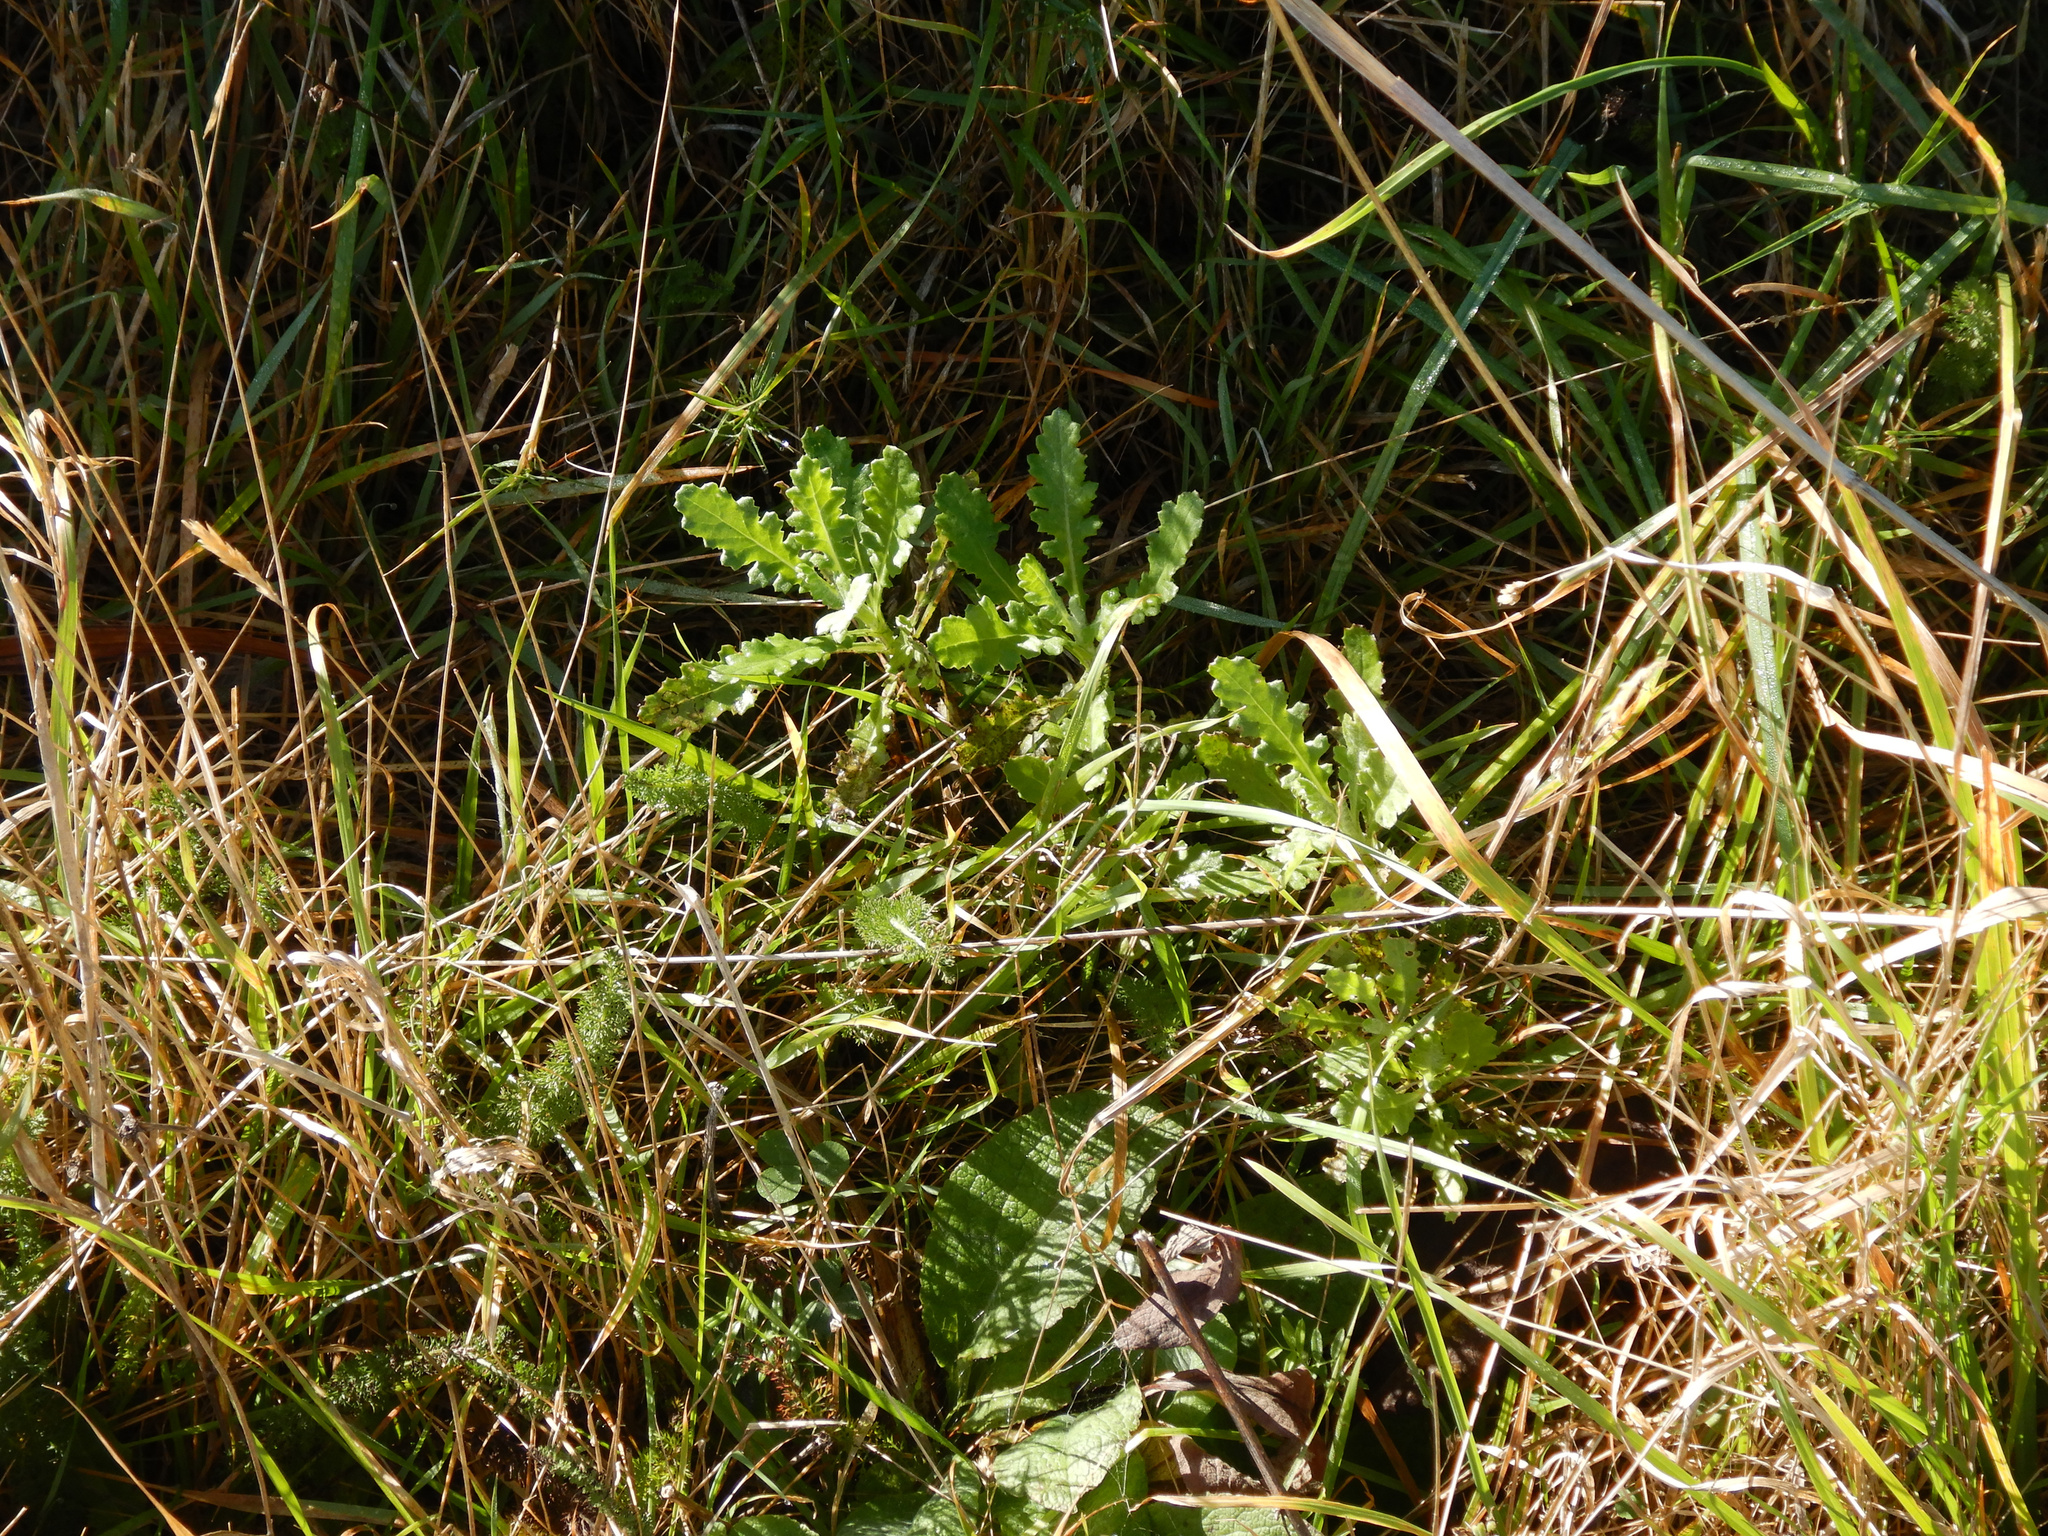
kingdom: Plantae
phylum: Tracheophyta
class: Magnoliopsida
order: Asterales
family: Asteraceae
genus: Senecio
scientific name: Senecio glomeratus
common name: Cutleaf burnweed
